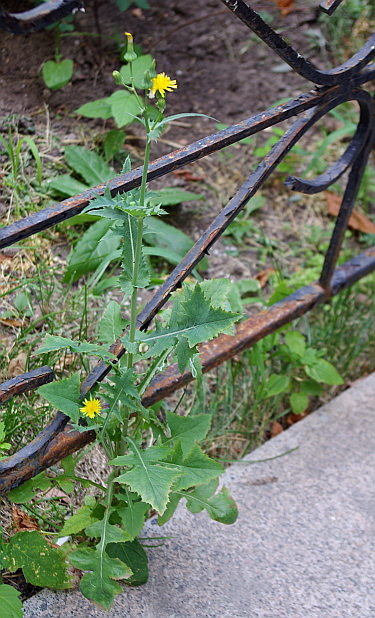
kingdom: Plantae
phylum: Tracheophyta
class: Magnoliopsida
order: Asterales
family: Asteraceae
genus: Sonchus
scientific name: Sonchus oleraceus
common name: Common sowthistle
